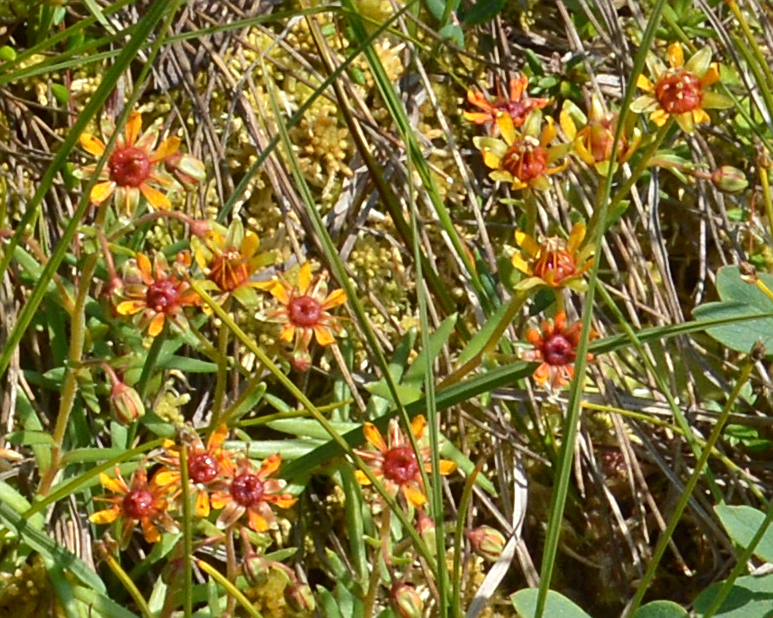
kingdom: Plantae
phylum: Tracheophyta
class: Magnoliopsida
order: Saxifragales
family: Saxifragaceae
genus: Saxifraga
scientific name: Saxifraga aizoides
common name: Yellow mountain saxifrage
